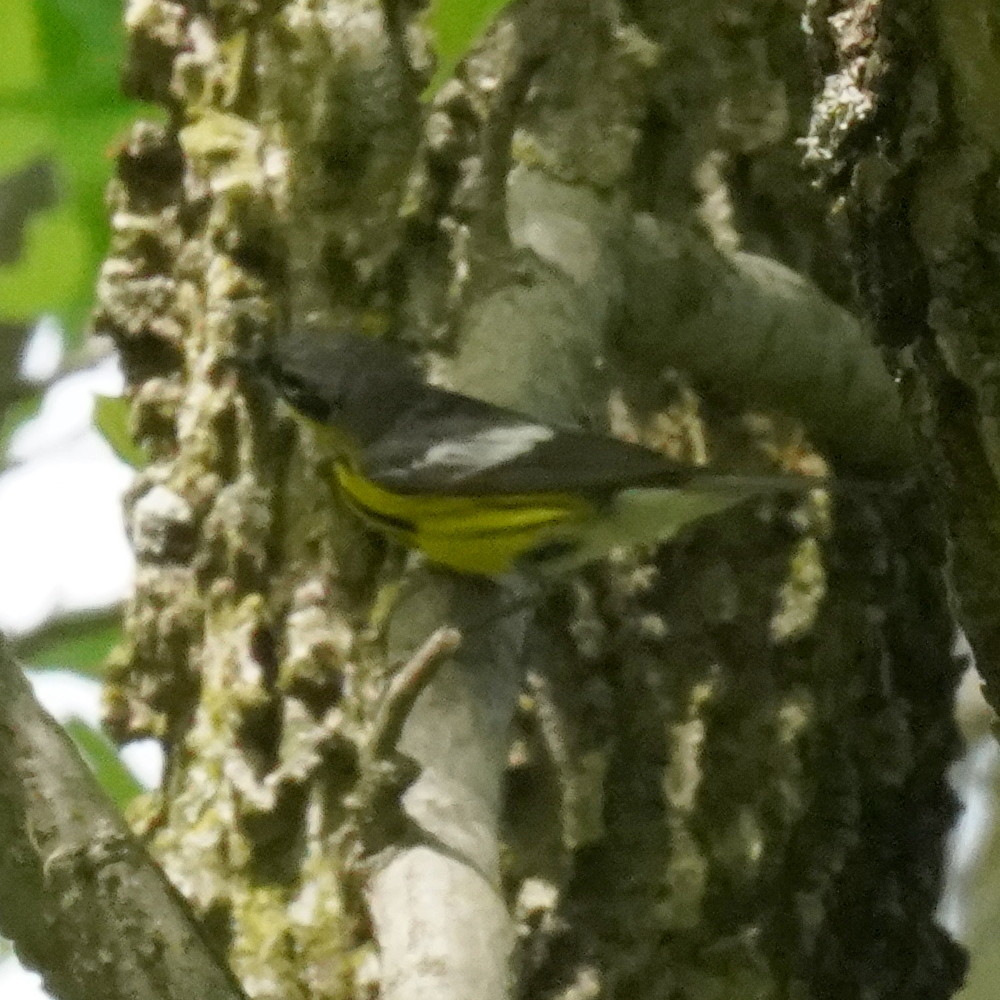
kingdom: Animalia
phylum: Chordata
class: Aves
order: Passeriformes
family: Parulidae
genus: Setophaga
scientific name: Setophaga magnolia
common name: Magnolia warbler
